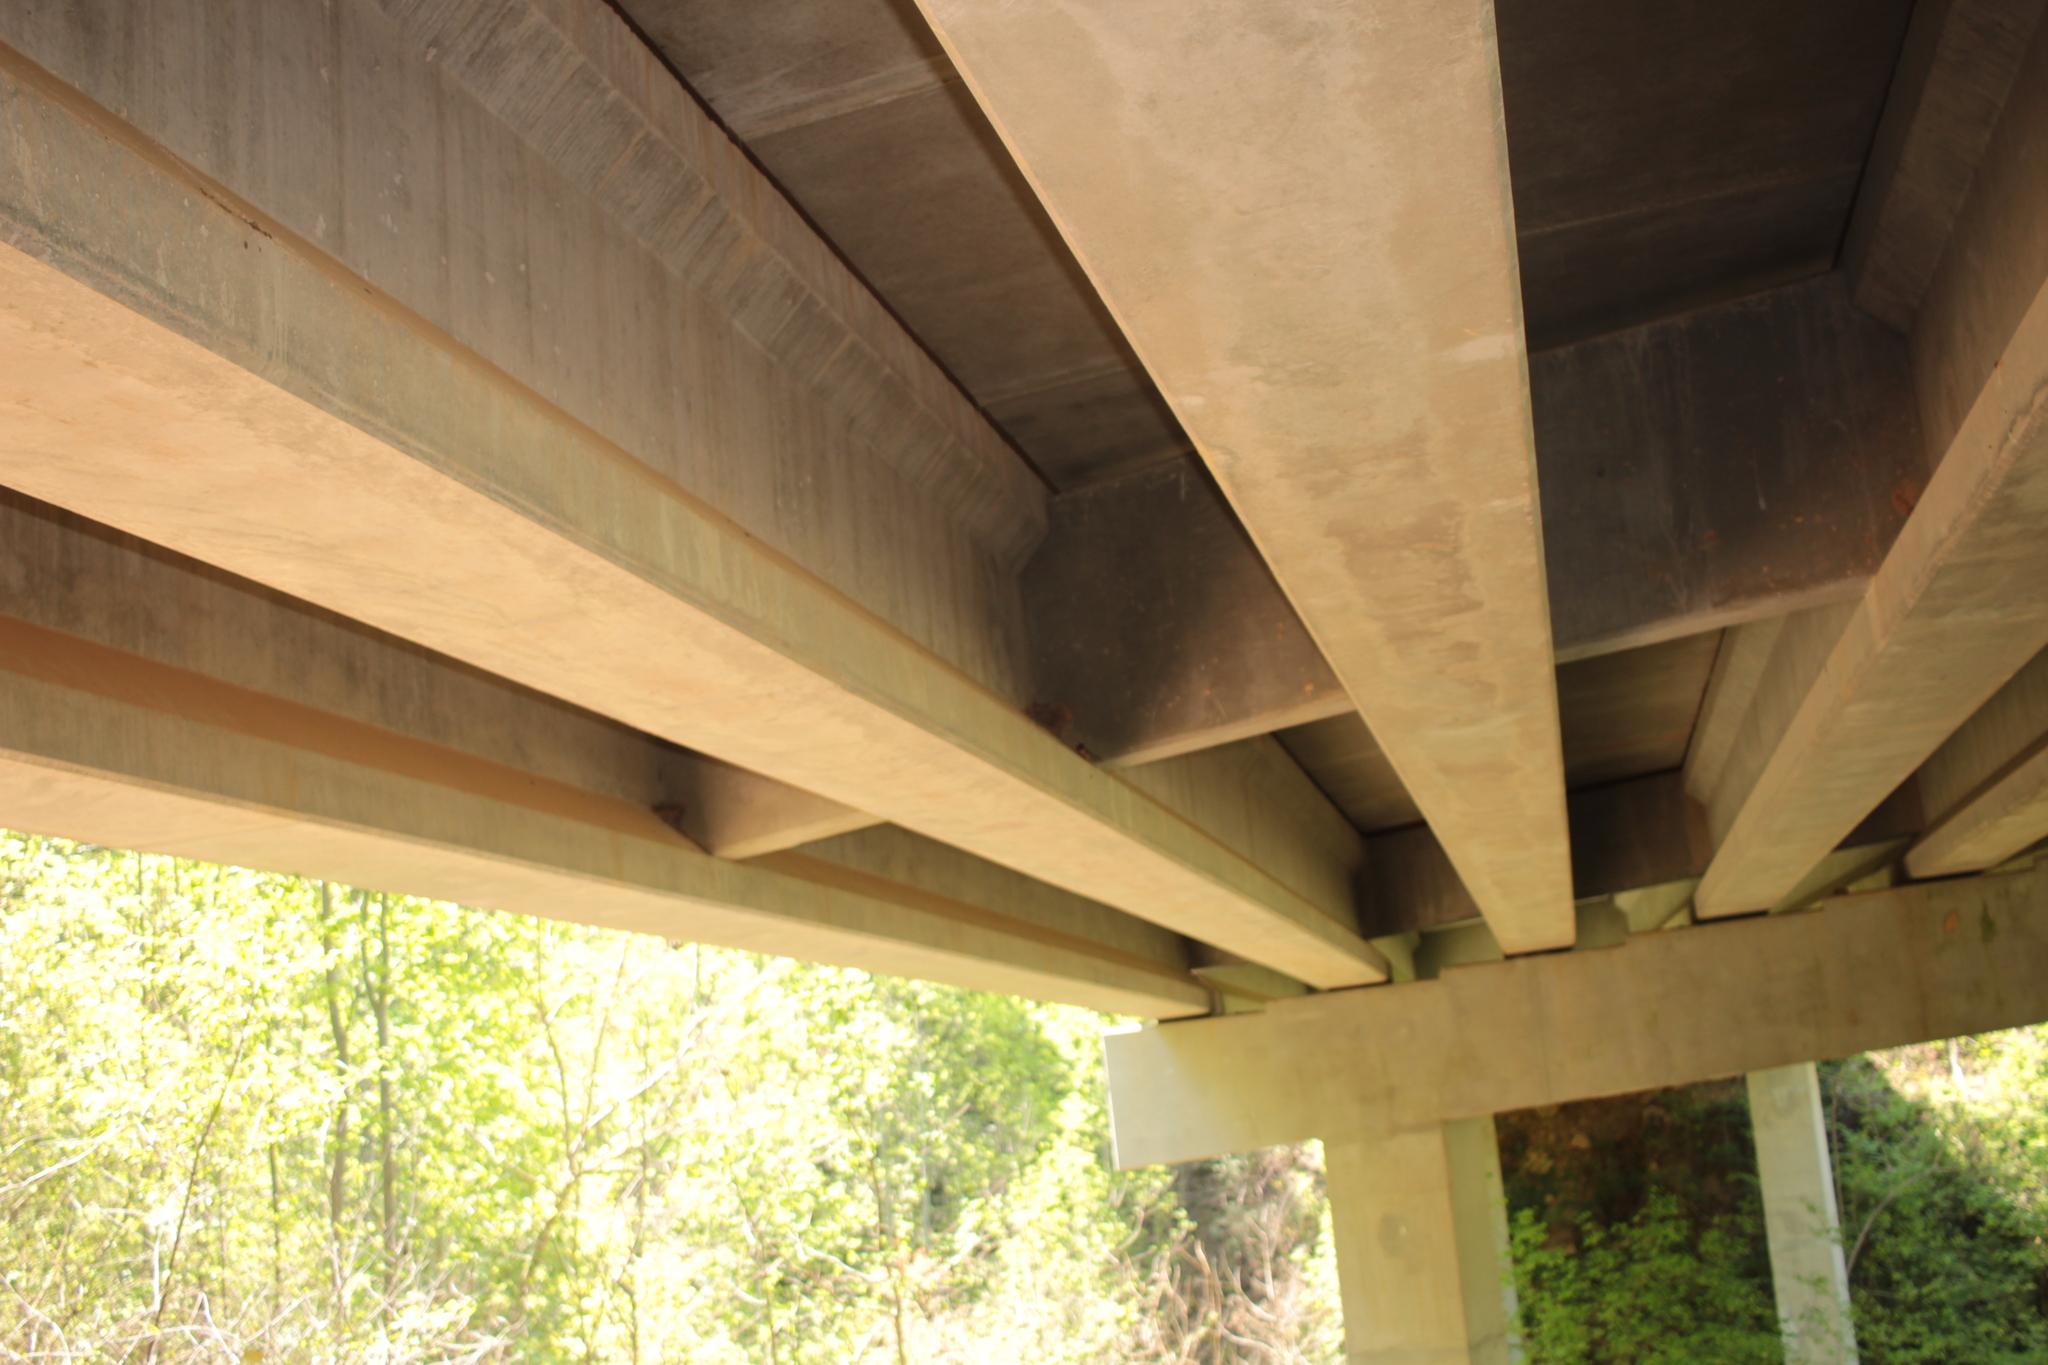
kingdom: Animalia
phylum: Chordata
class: Aves
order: Passeriformes
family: Hirundinidae
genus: Hirundo
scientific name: Hirundo rustica
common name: Barn swallow
